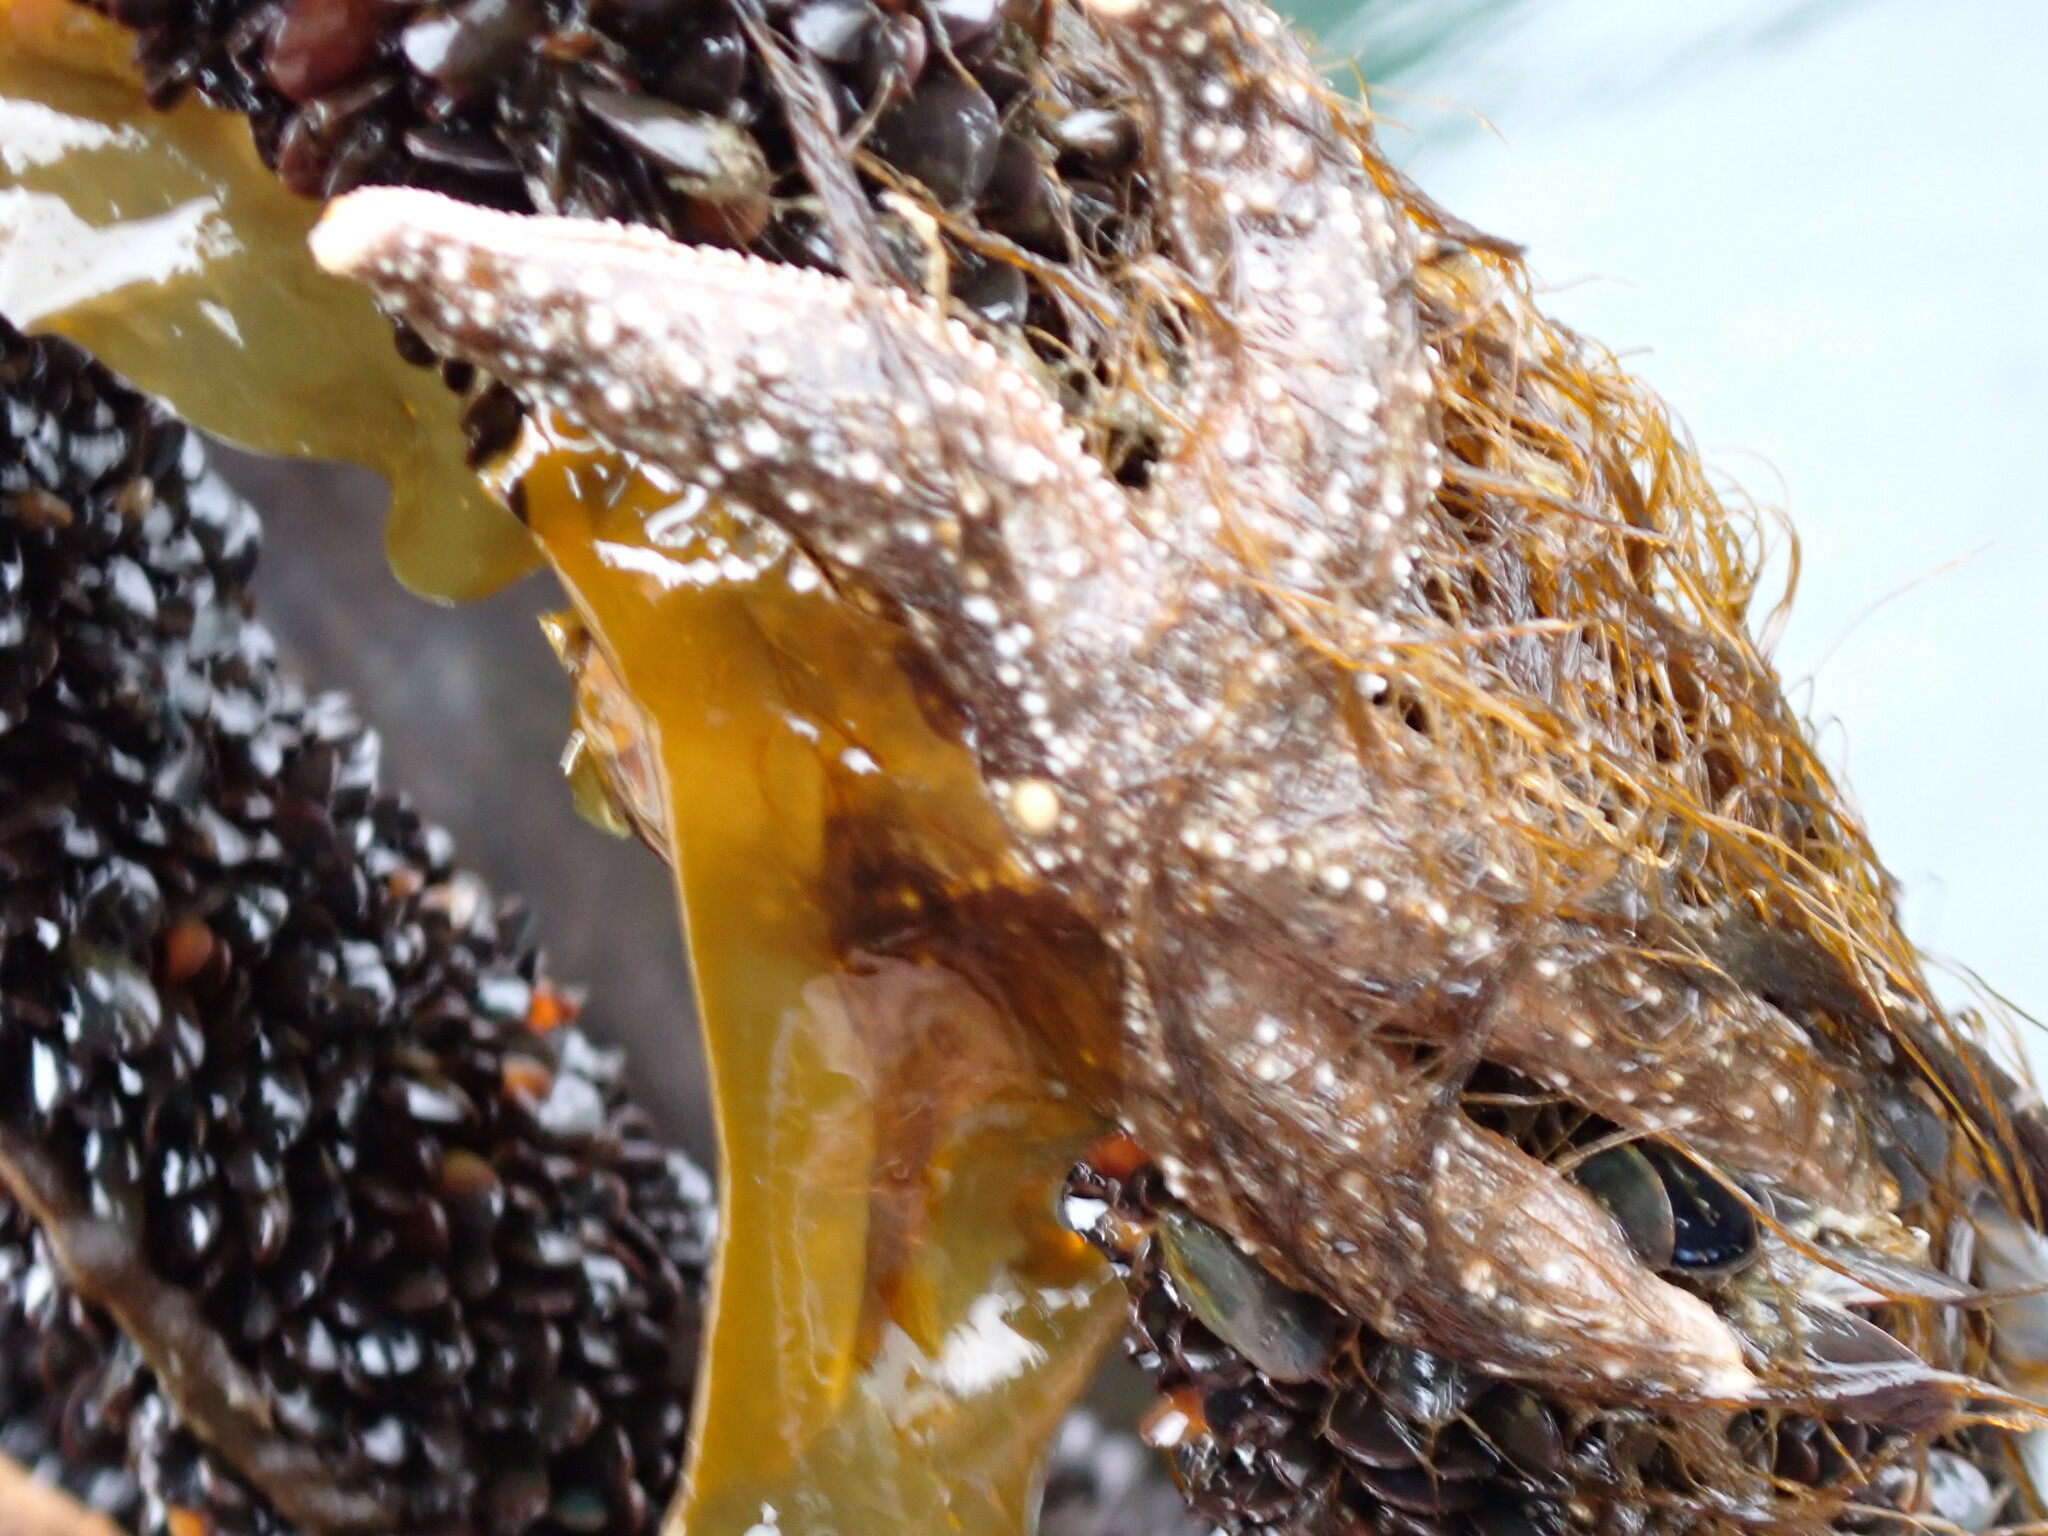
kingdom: Animalia
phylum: Echinodermata
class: Asteroidea
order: Forcipulatida
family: Asteriidae
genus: Evasterias
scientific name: Evasterias troschelii
